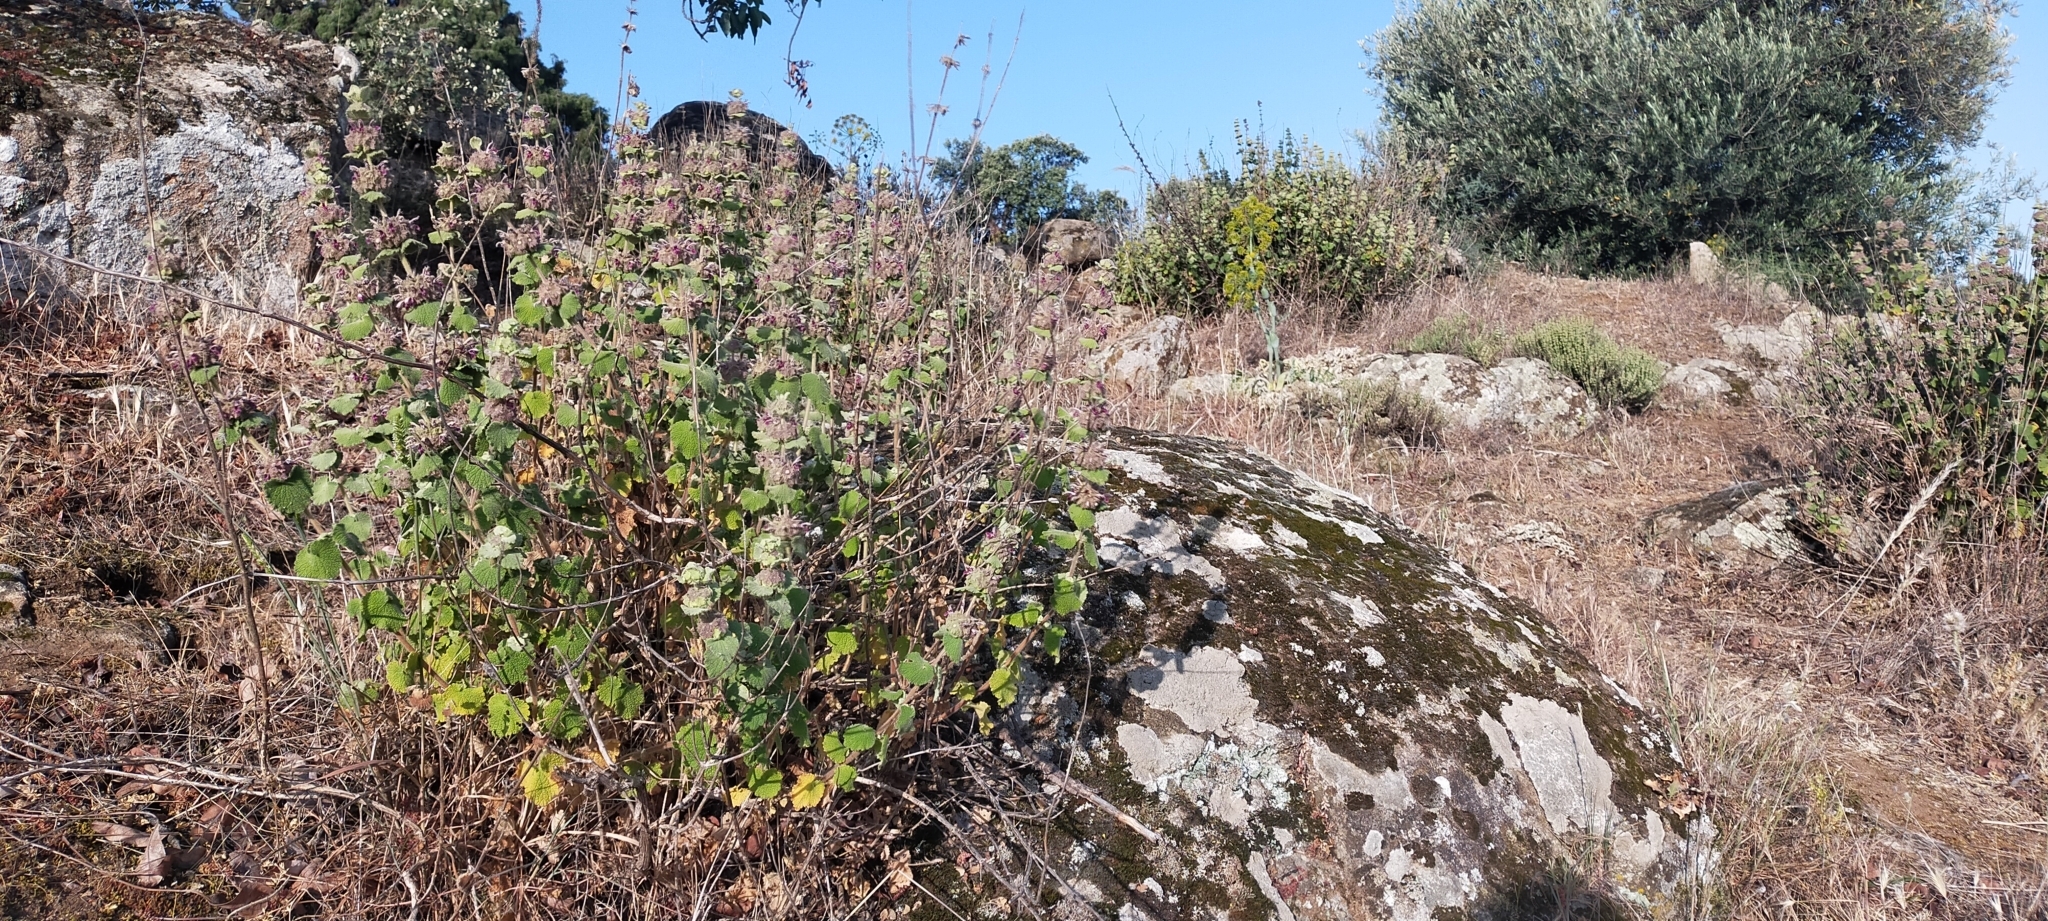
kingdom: Plantae
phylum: Tracheophyta
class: Magnoliopsida
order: Lamiales
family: Lamiaceae
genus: Pseudodictamnus
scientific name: Pseudodictamnus hirsutus
